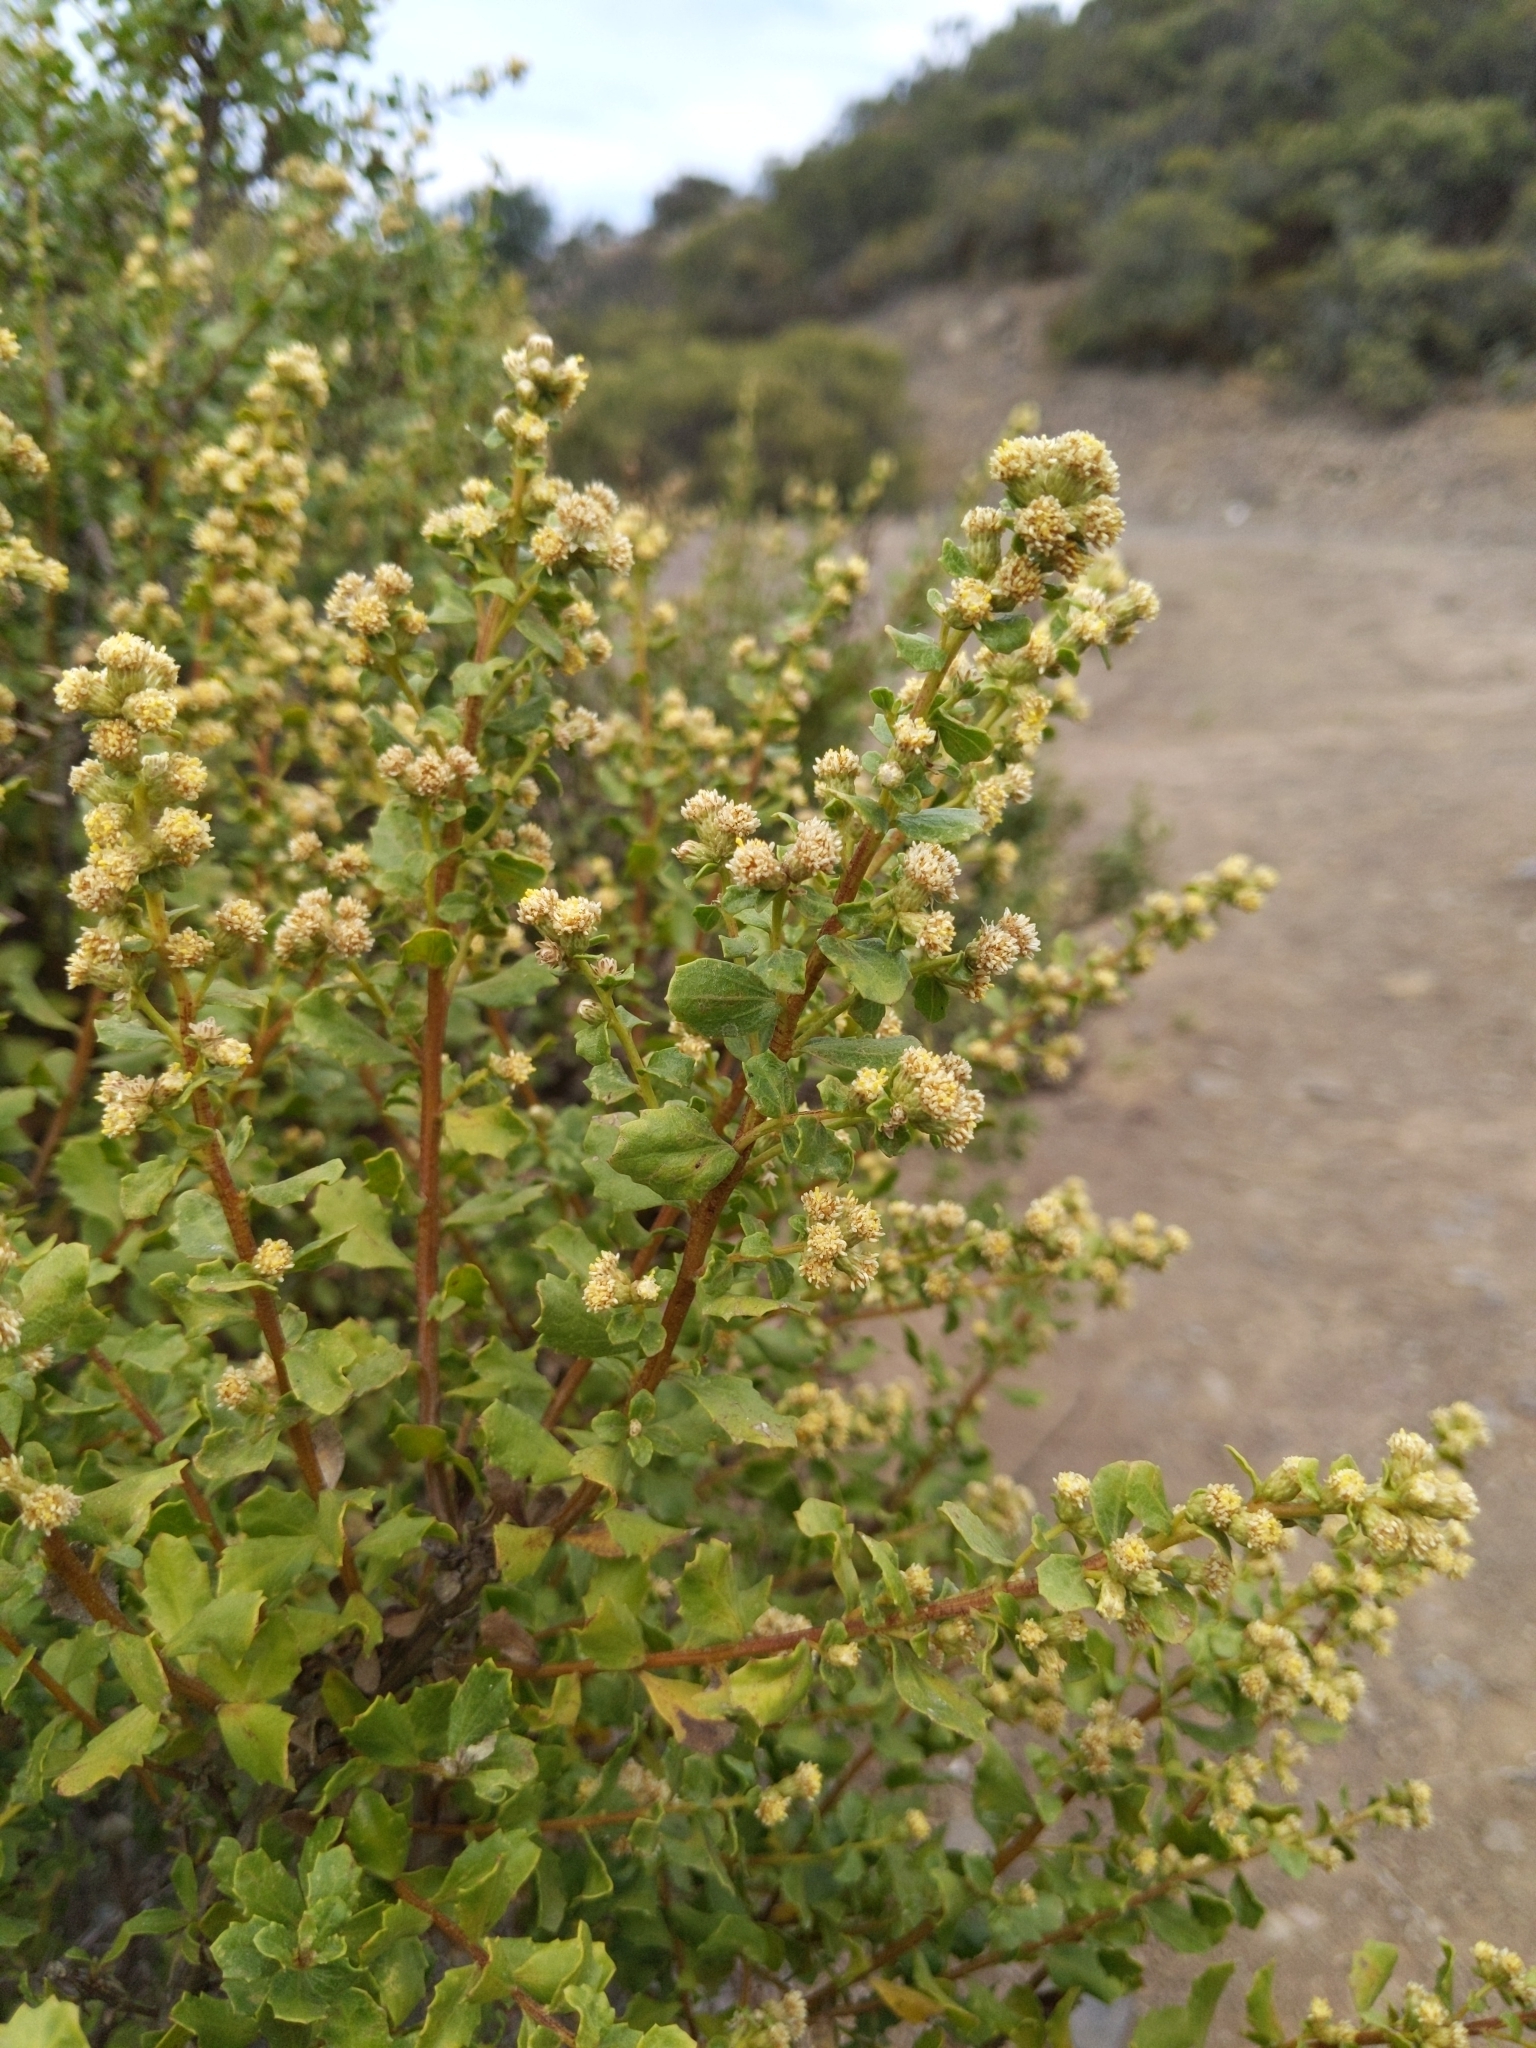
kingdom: Plantae
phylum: Tracheophyta
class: Magnoliopsida
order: Asterales
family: Asteraceae
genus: Baccharis
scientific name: Baccharis pilularis
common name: Coyotebrush
